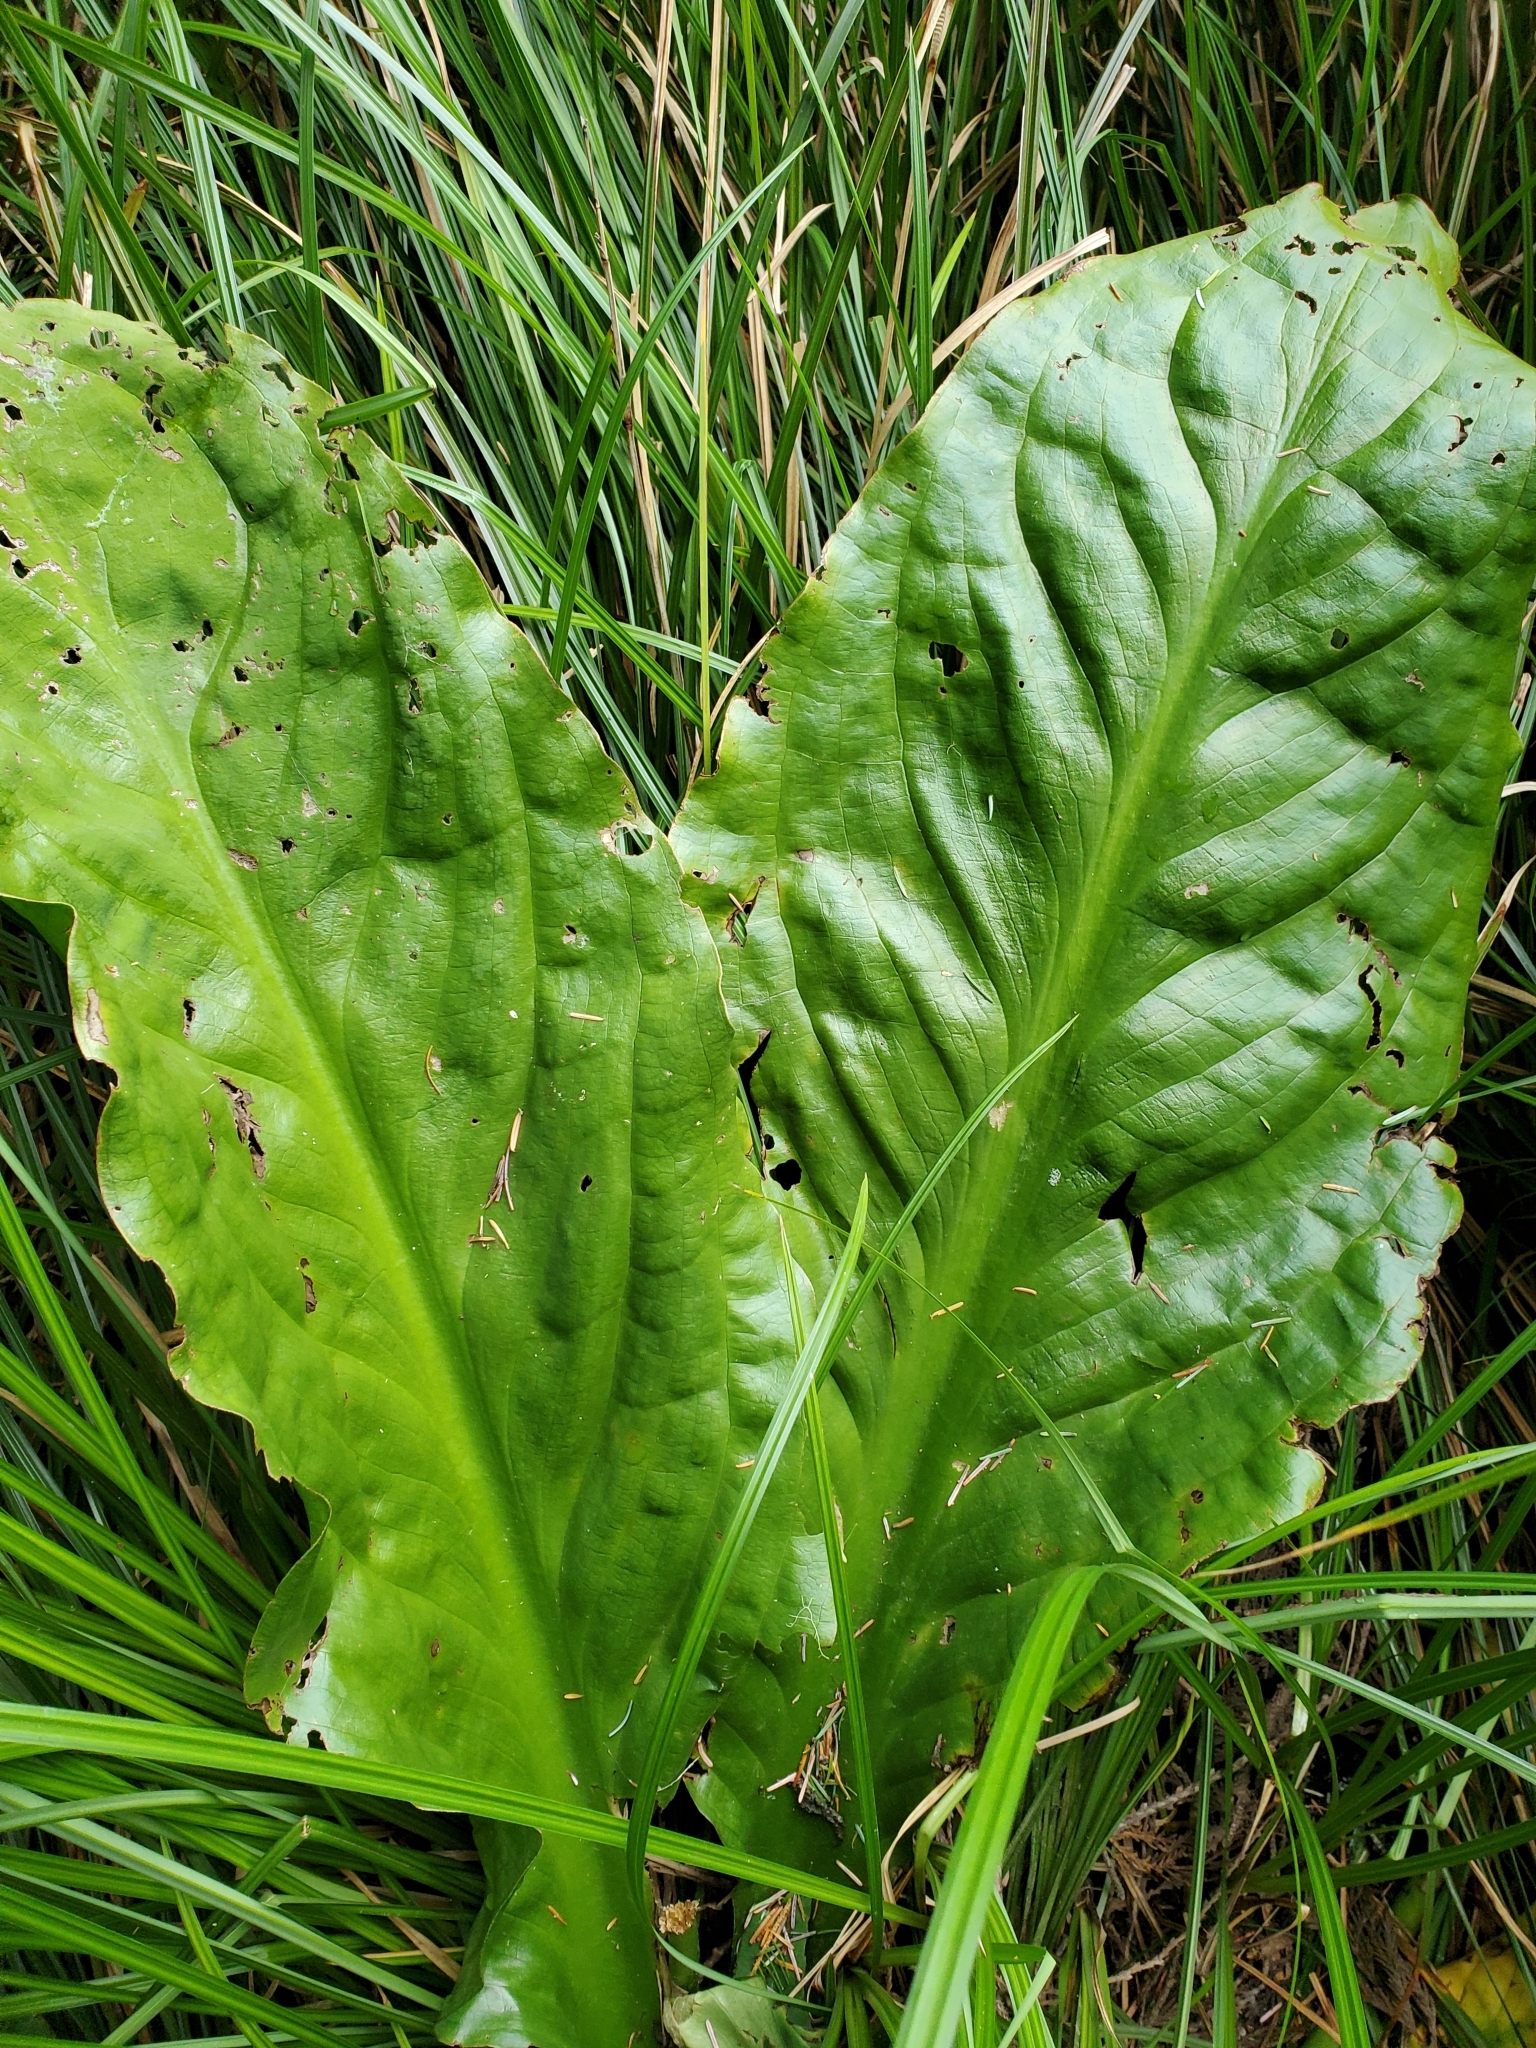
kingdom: Plantae
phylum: Tracheophyta
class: Liliopsida
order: Alismatales
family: Araceae
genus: Lysichiton
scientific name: Lysichiton americanus
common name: American skunk cabbage
